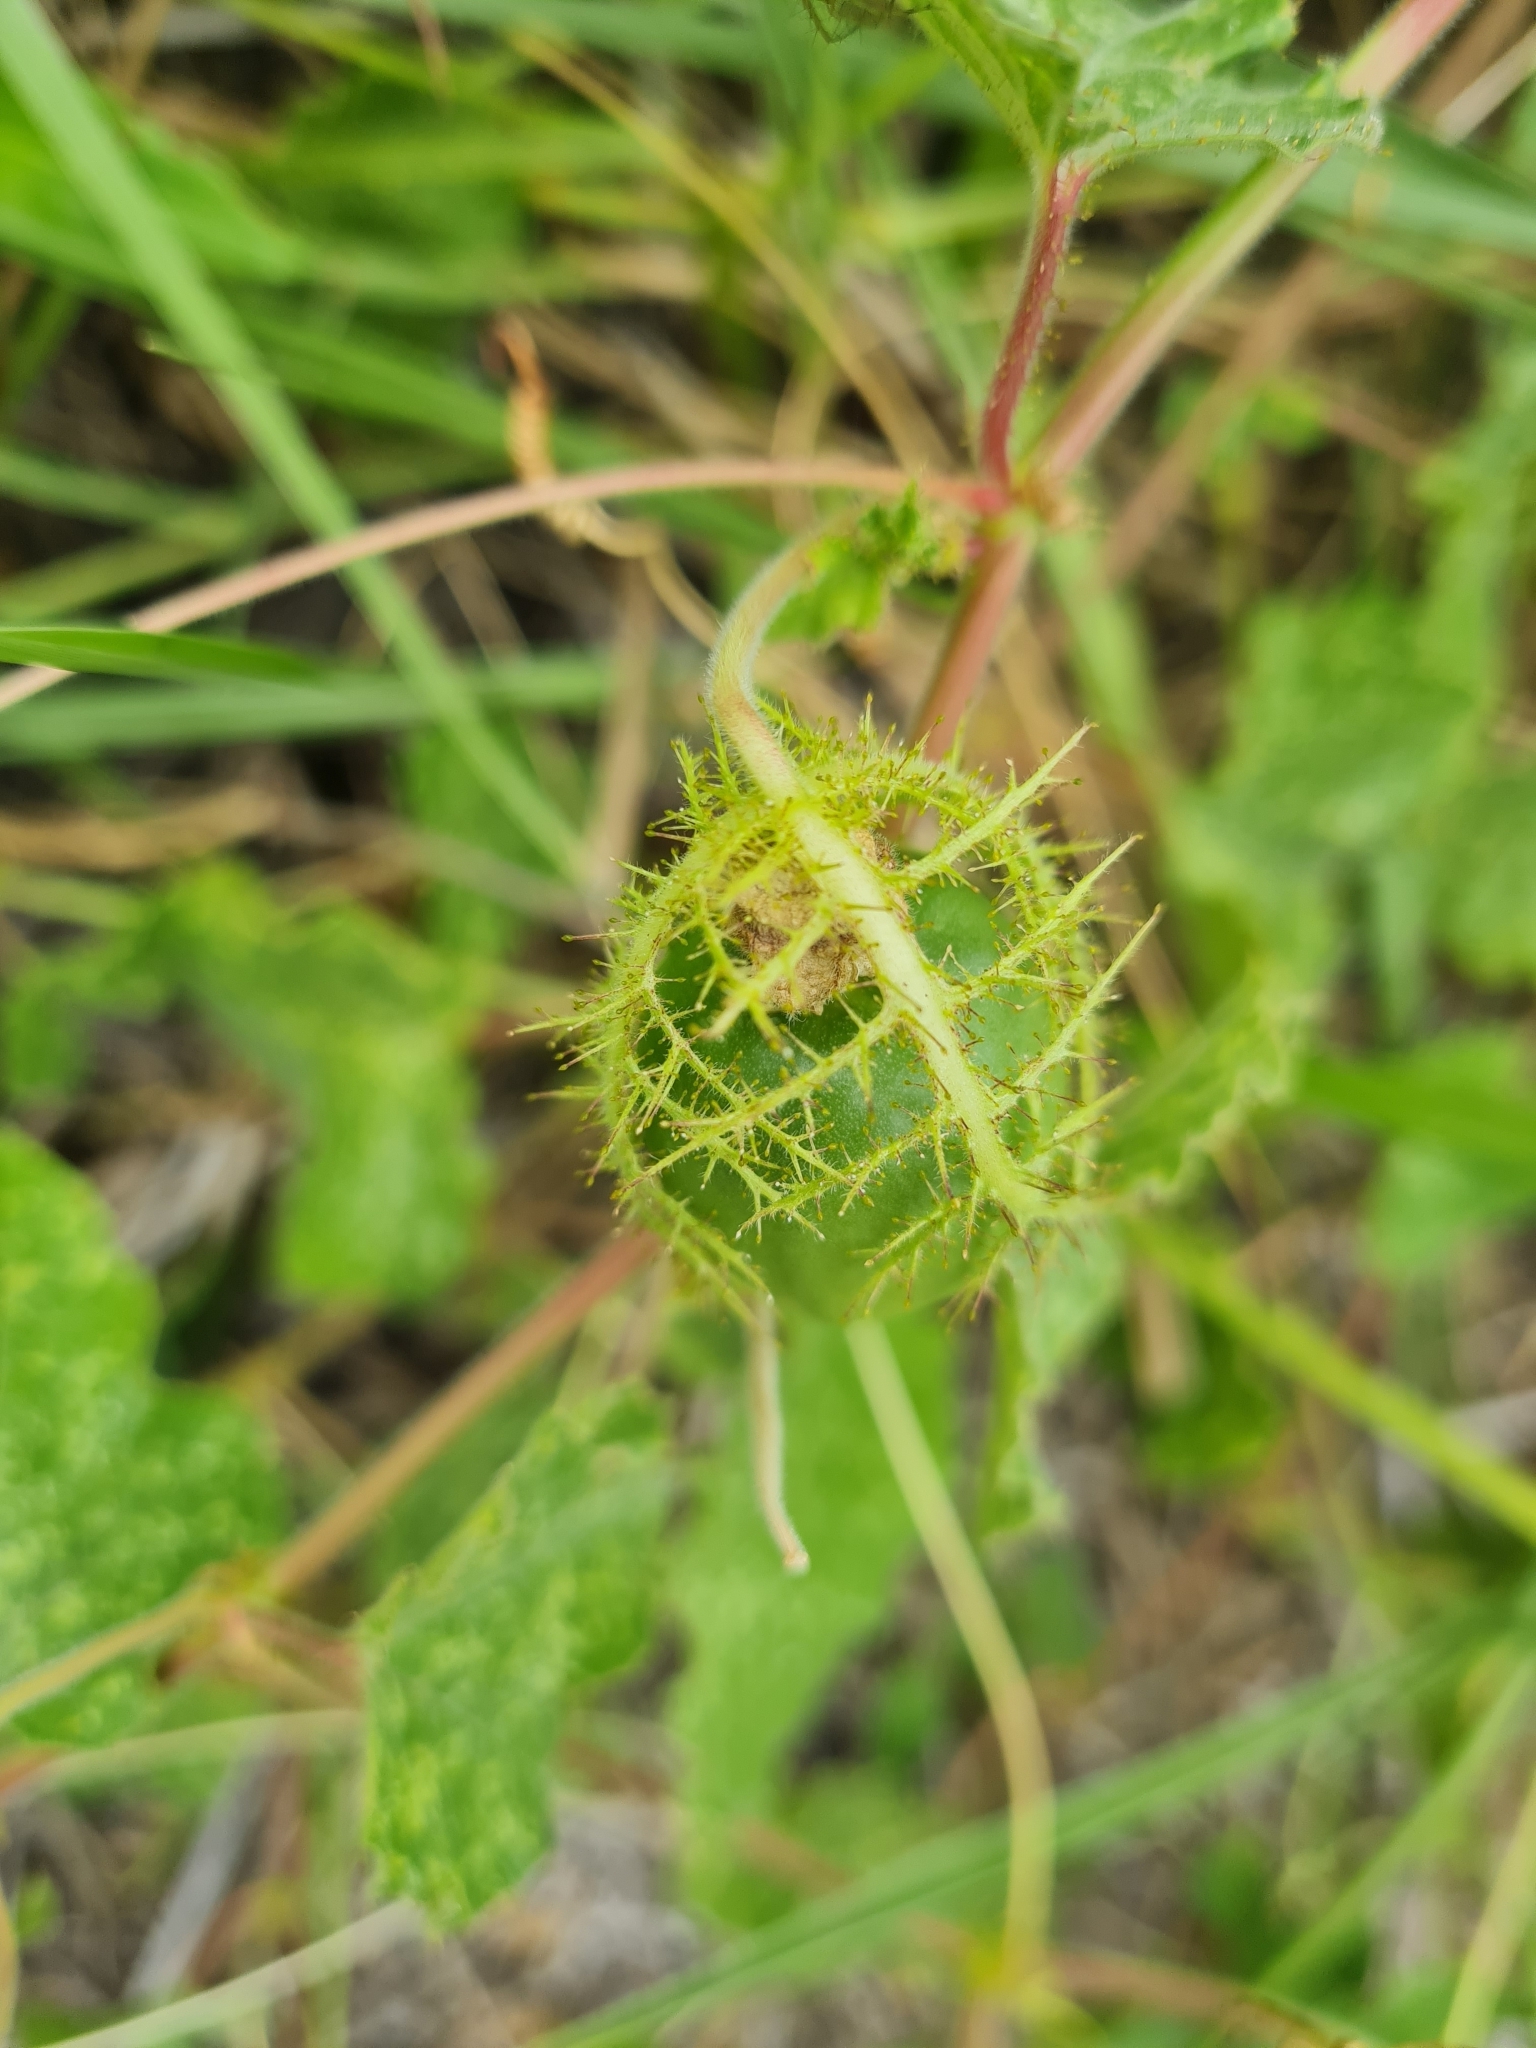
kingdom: Plantae
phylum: Tracheophyta
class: Magnoliopsida
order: Malpighiales
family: Passifloraceae
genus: Passiflora
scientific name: Passiflora foetida
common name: Fetid passionflower
